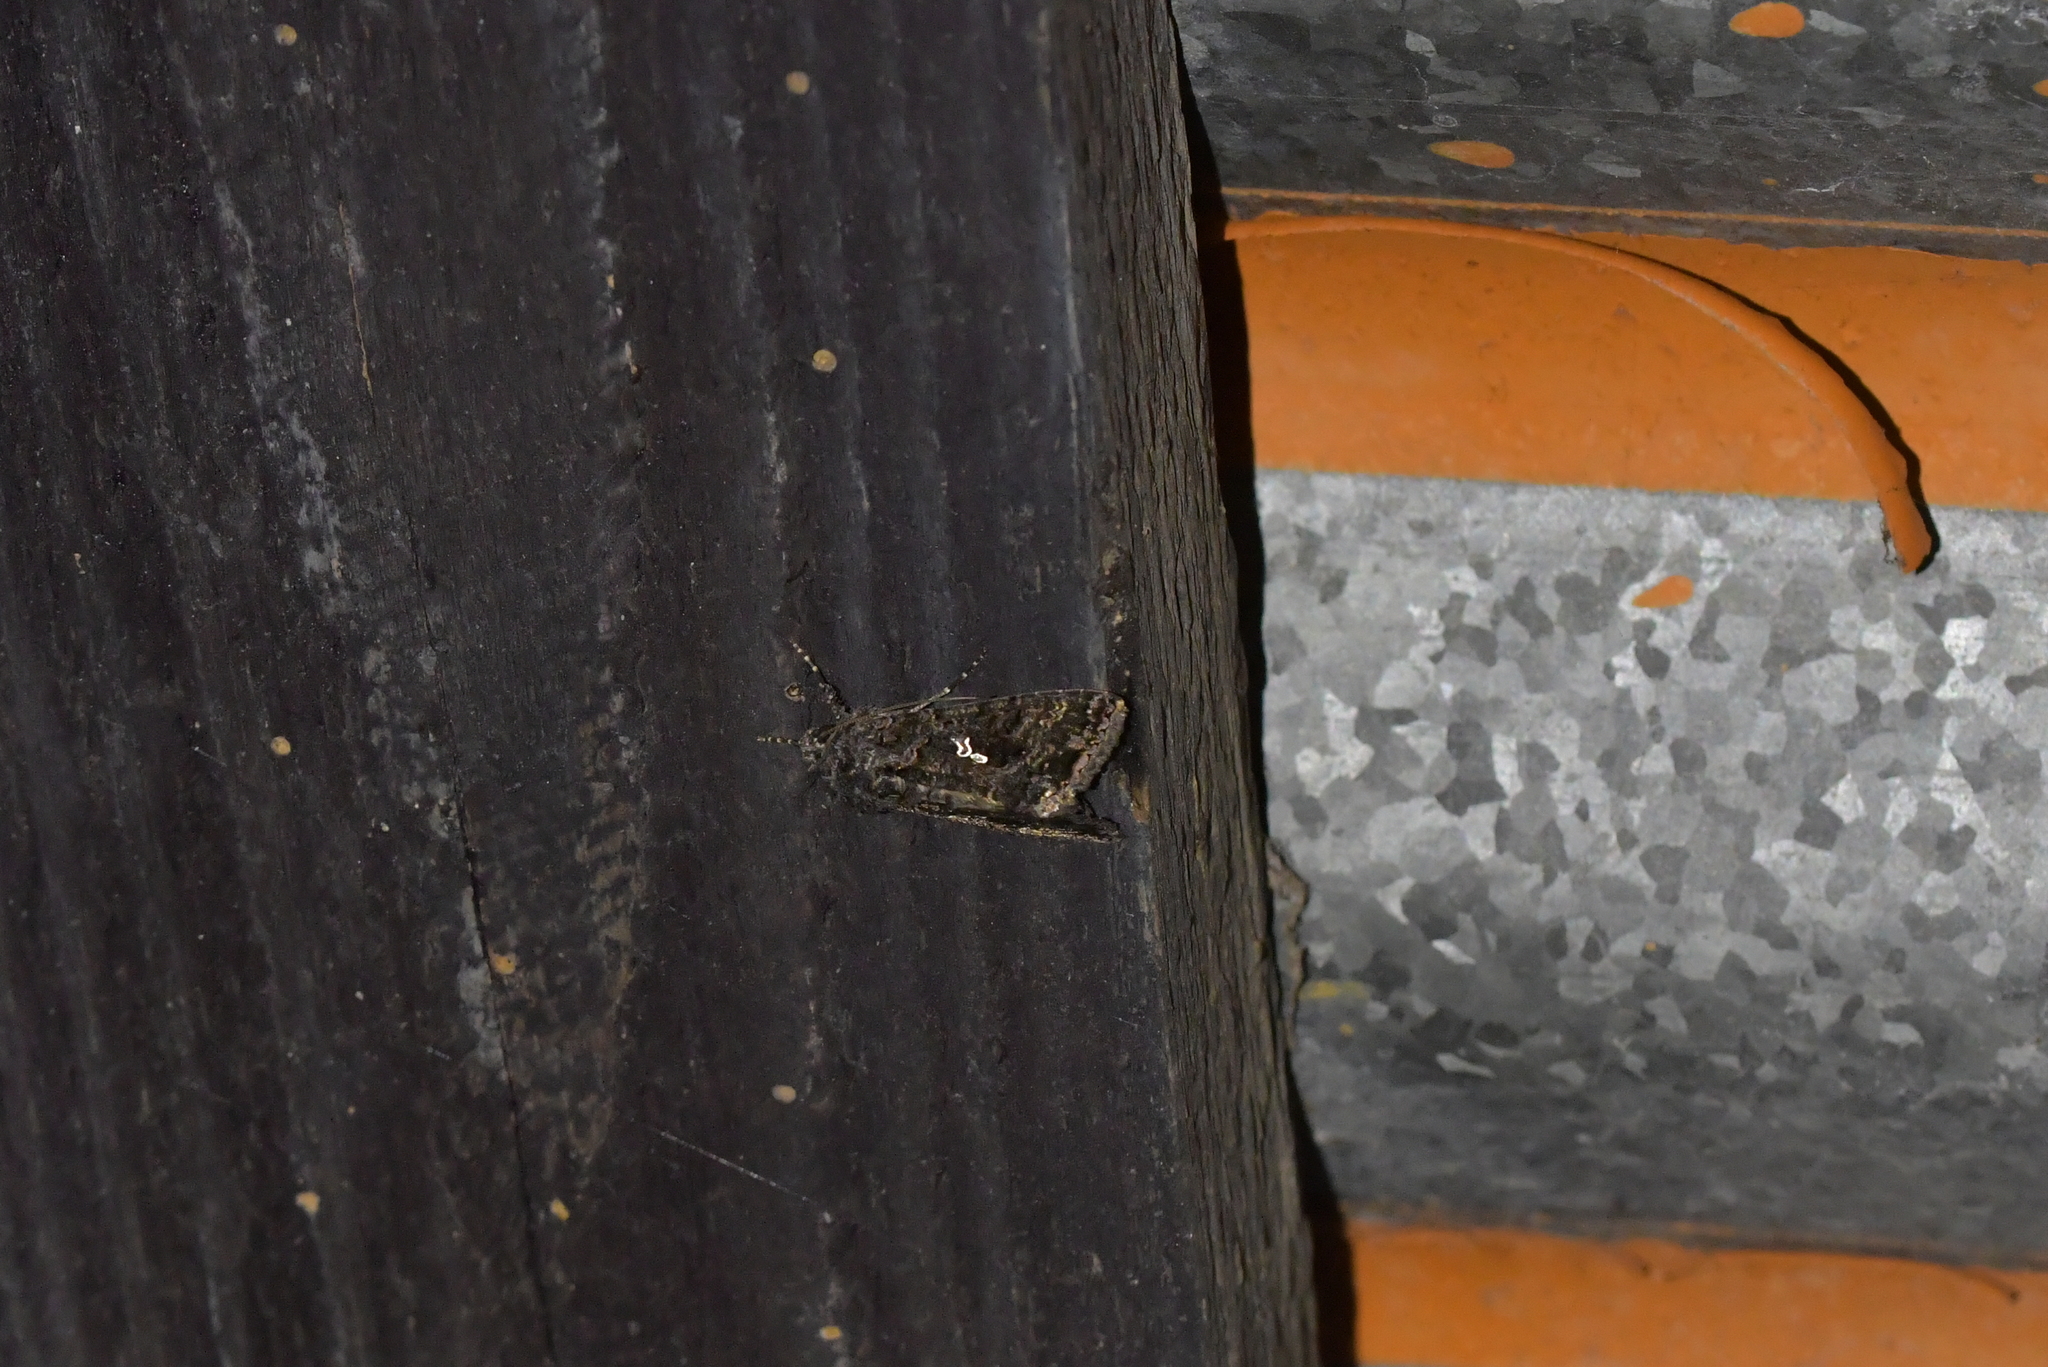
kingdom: Animalia
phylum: Arthropoda
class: Insecta
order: Lepidoptera
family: Noctuidae
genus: Ctenoplusia
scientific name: Ctenoplusia limbirena
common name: Scar bank gem
